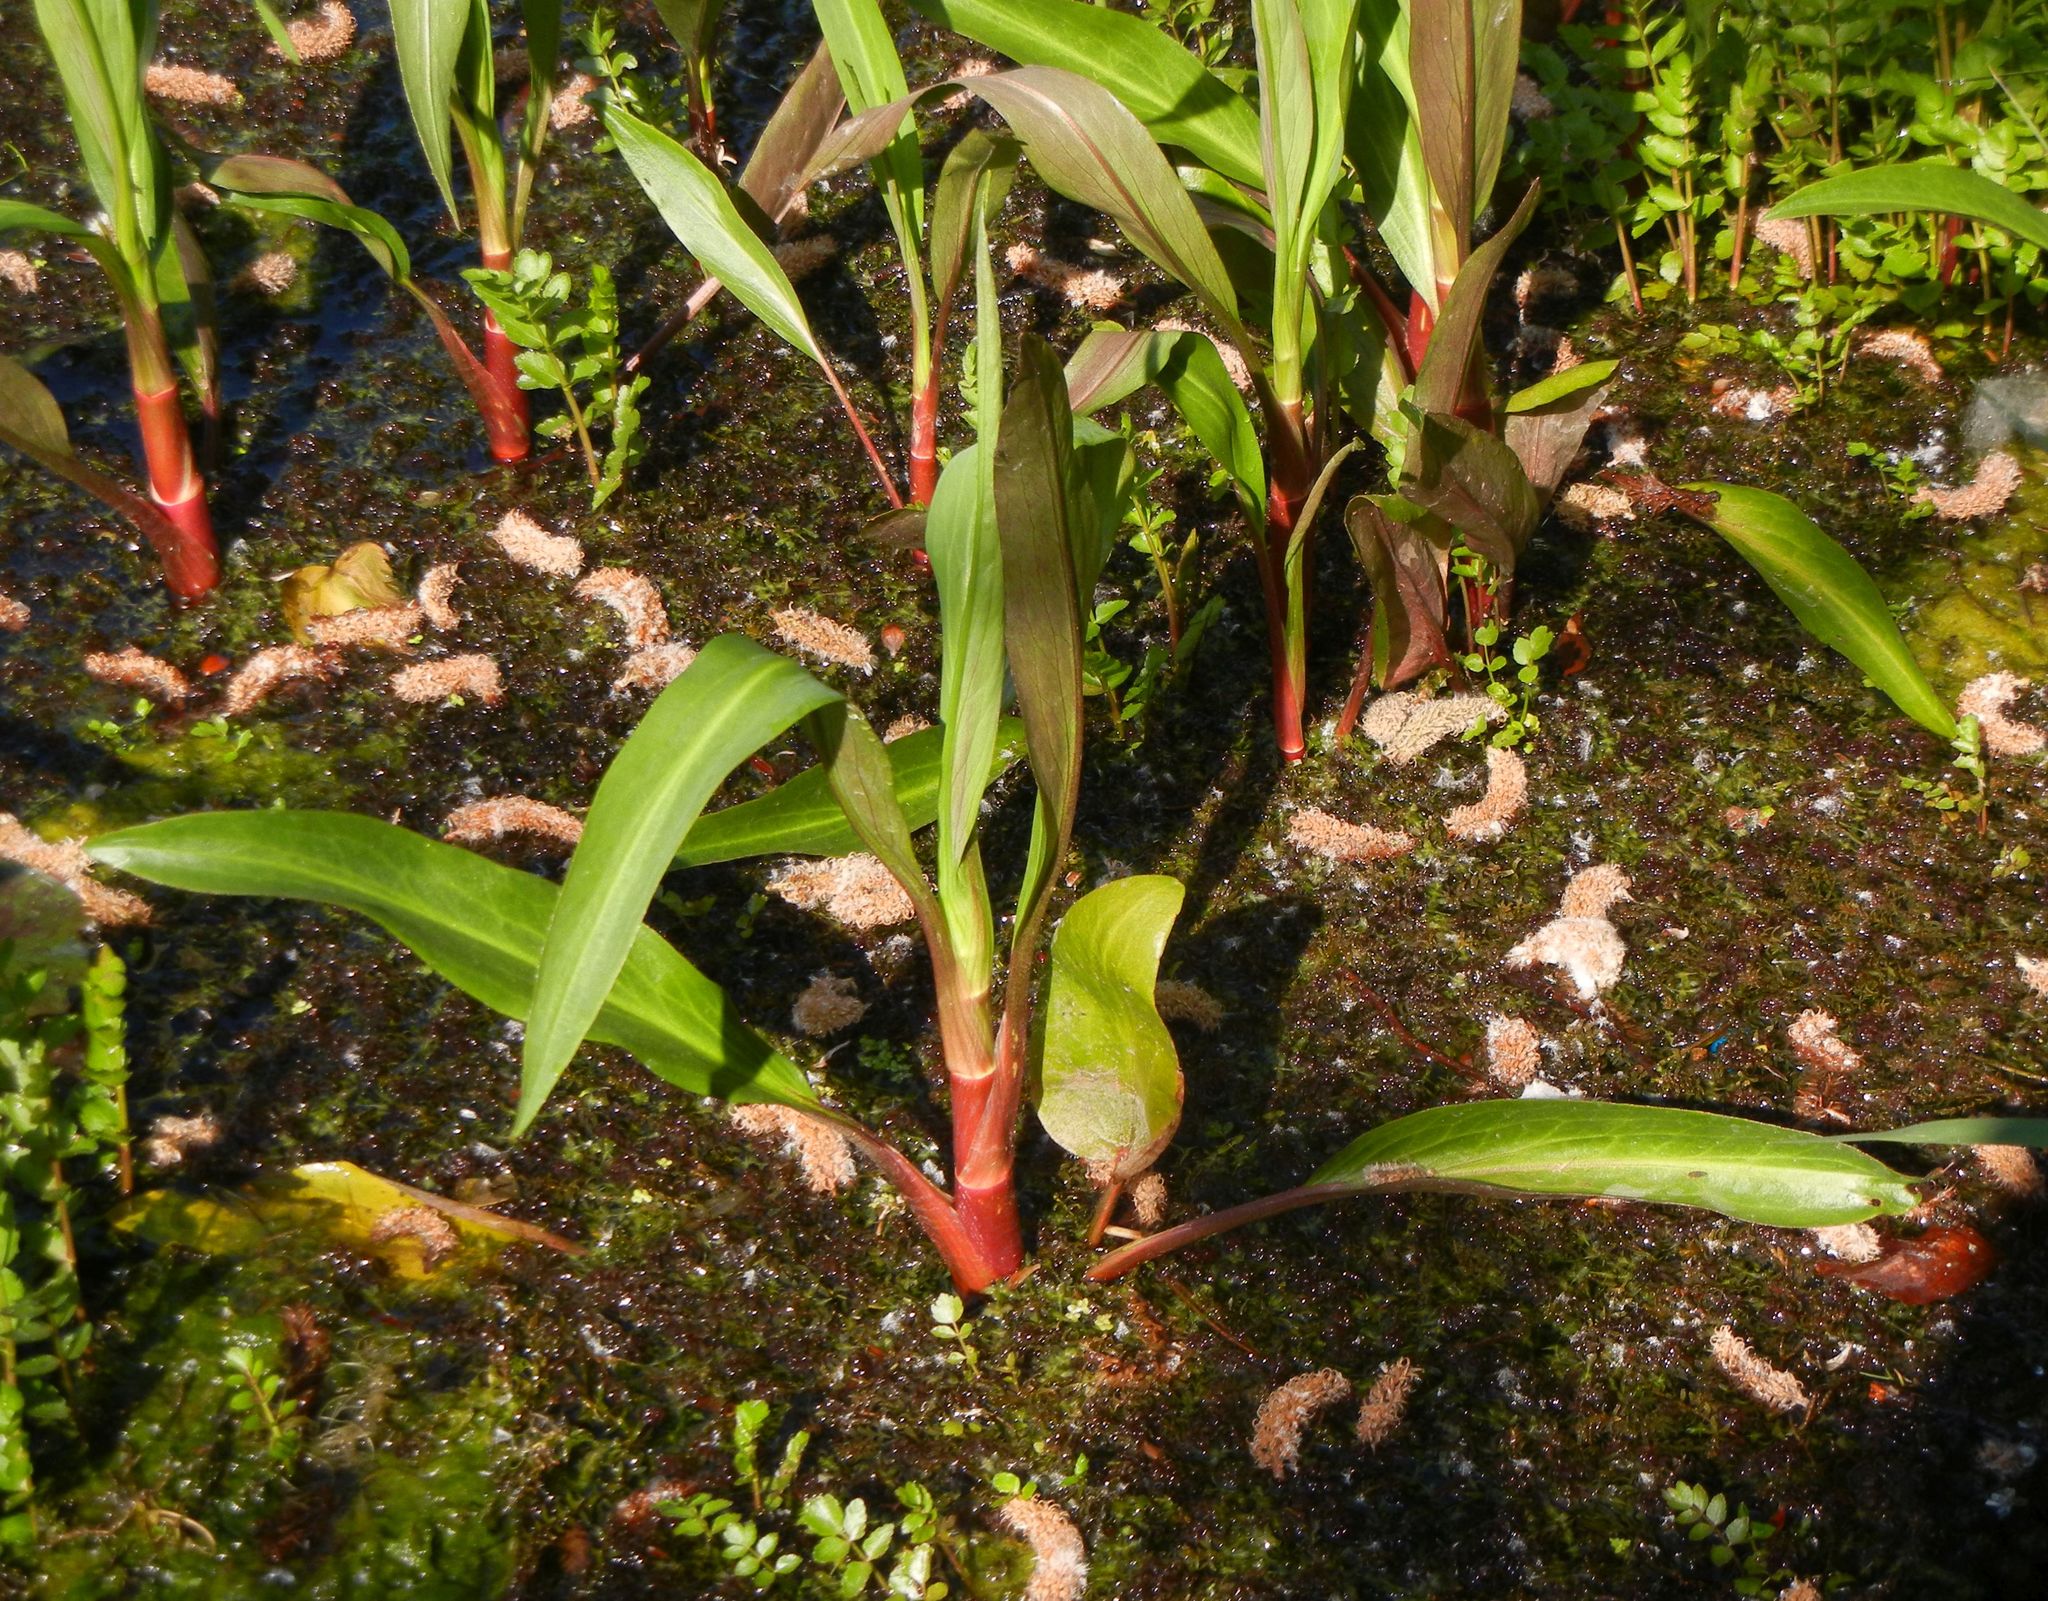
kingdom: Plantae
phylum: Tracheophyta
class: Magnoliopsida
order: Ranunculales
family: Ranunculaceae
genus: Ranunculus
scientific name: Ranunculus lingua
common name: Greater spearwort
